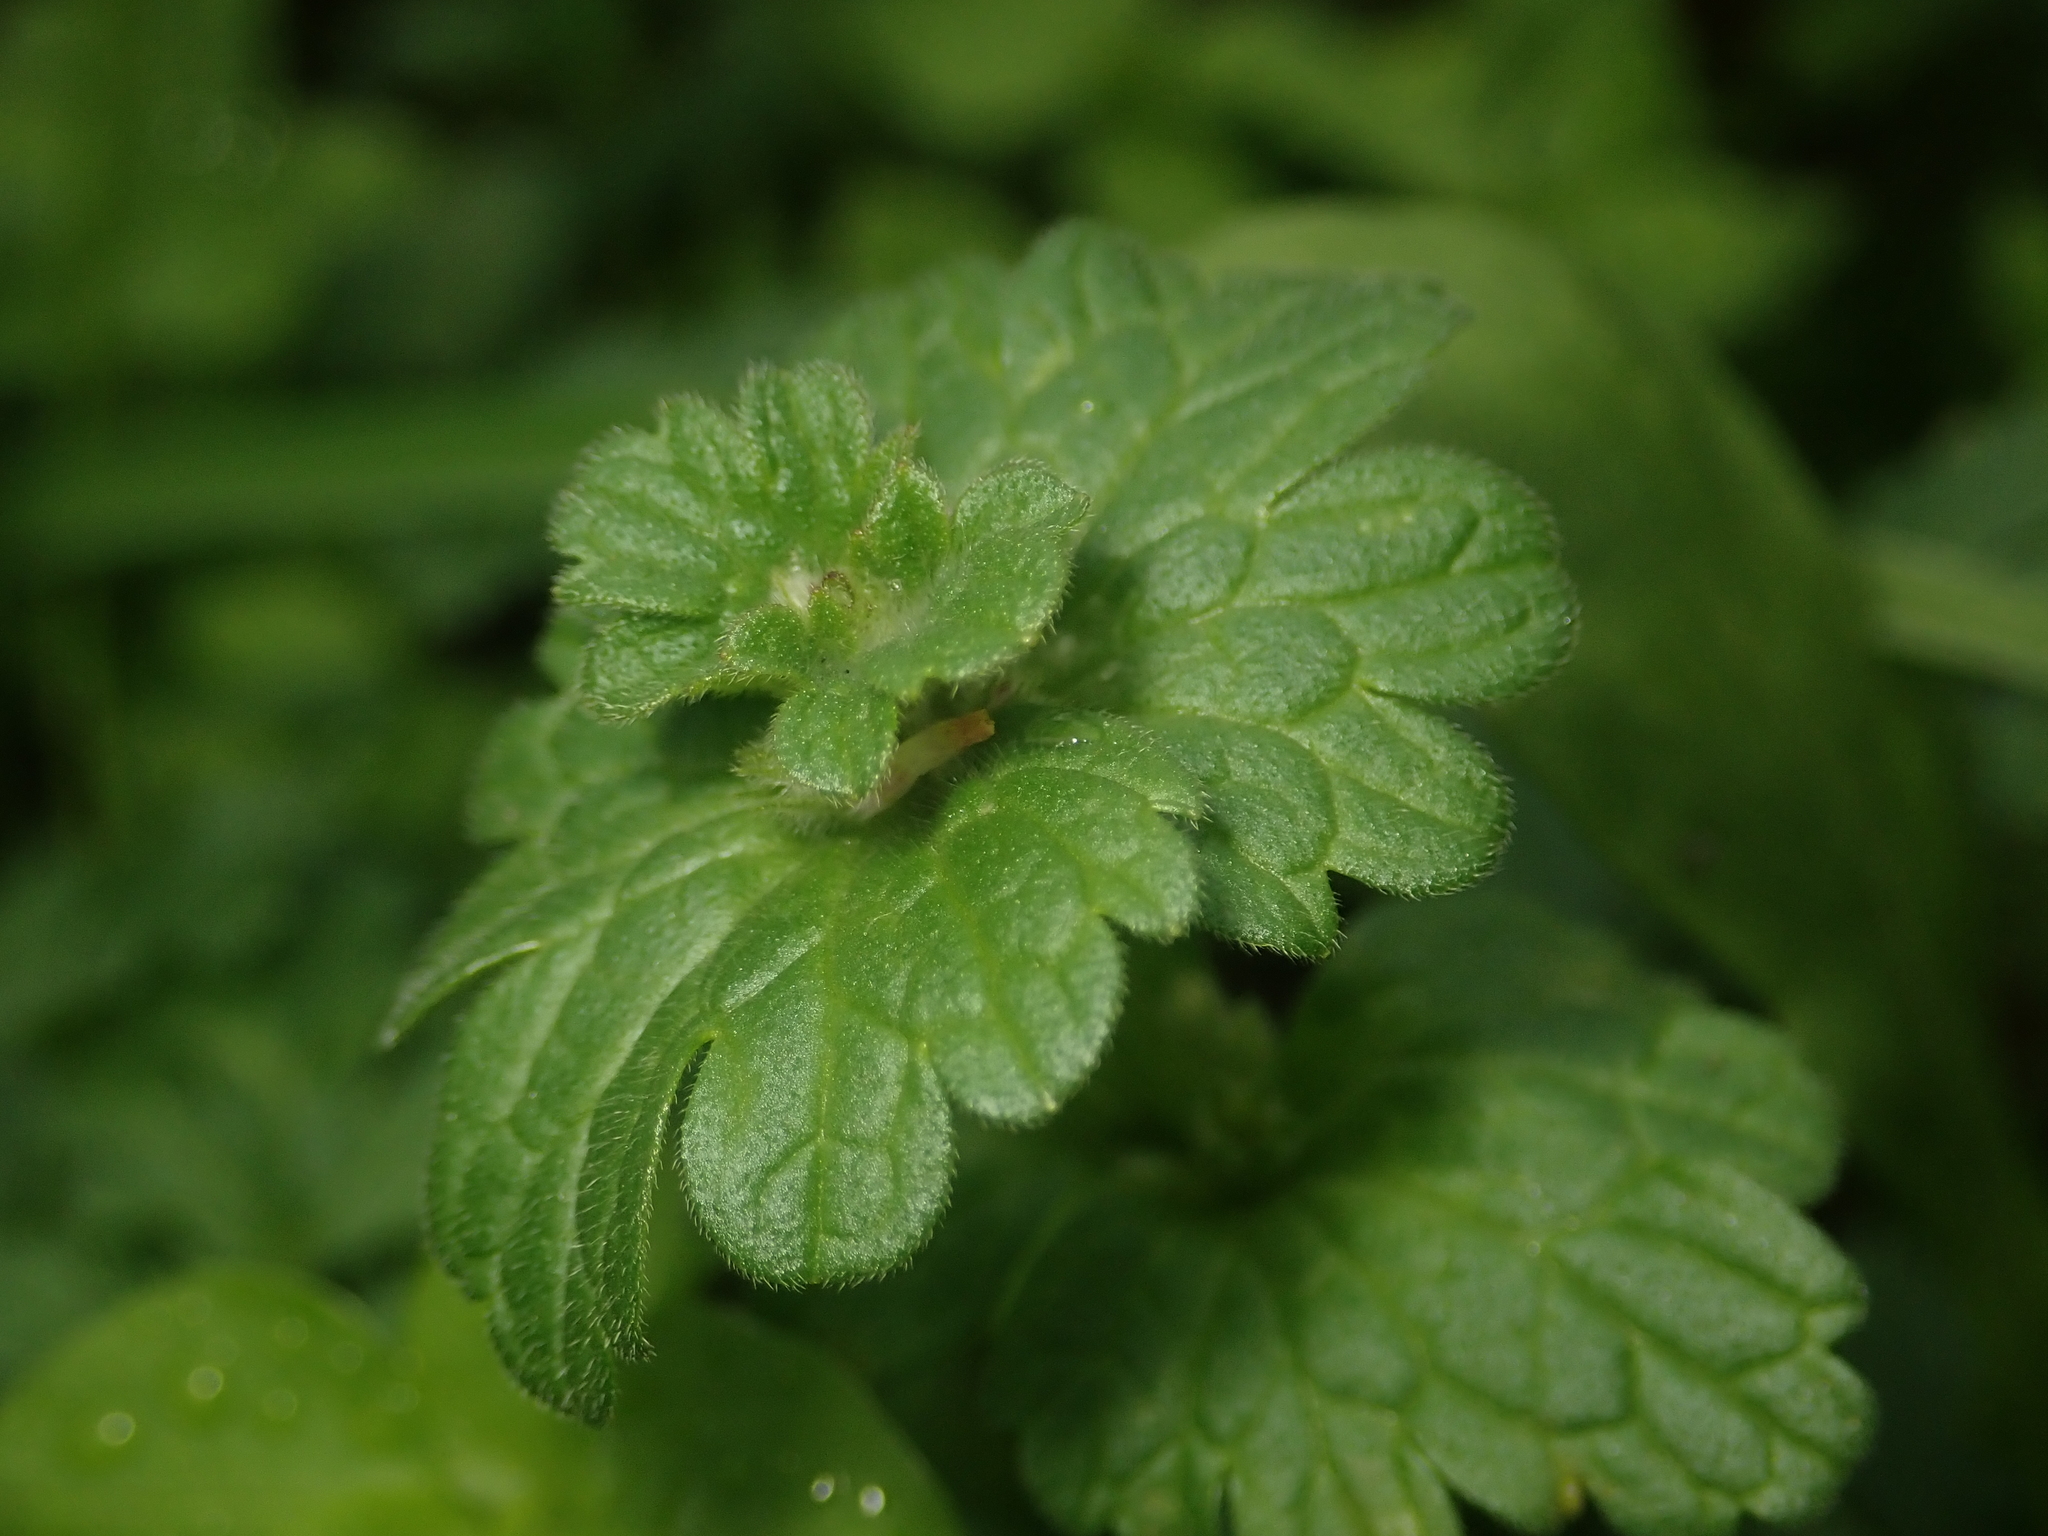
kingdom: Plantae
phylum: Tracheophyta
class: Magnoliopsida
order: Lamiales
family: Lamiaceae
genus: Lamium
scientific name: Lamium amplexicaule
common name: Henbit dead-nettle
